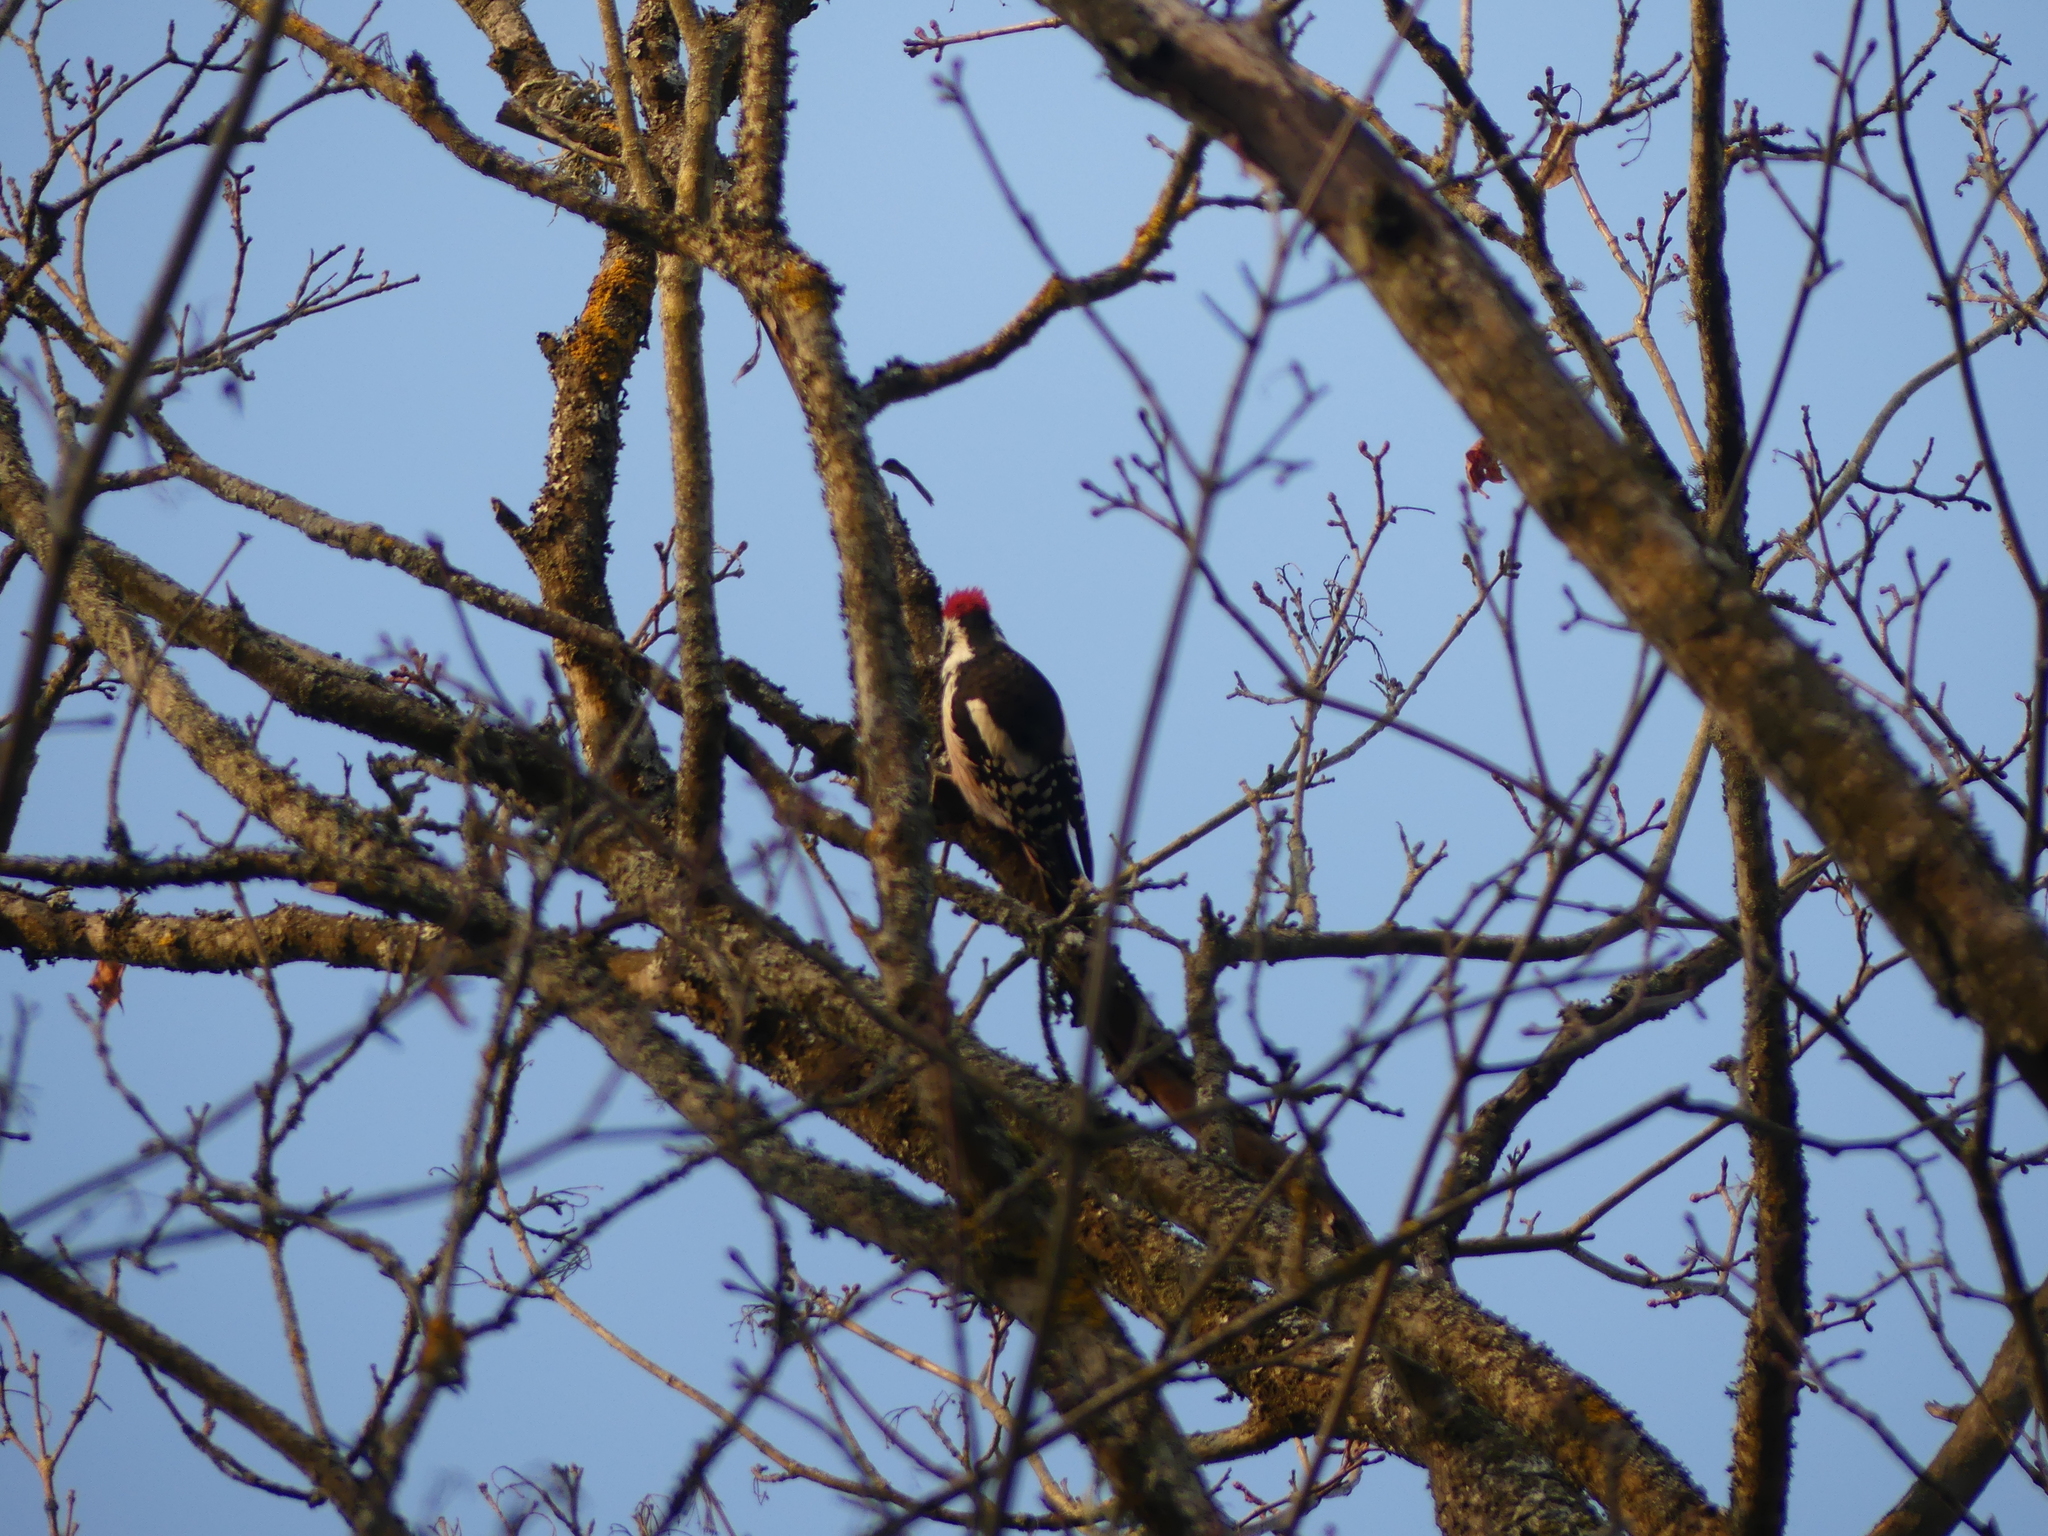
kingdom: Animalia
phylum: Chordata
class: Aves
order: Piciformes
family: Picidae
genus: Dendrocoptes
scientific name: Dendrocoptes medius
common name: Middle spotted woodpecker
